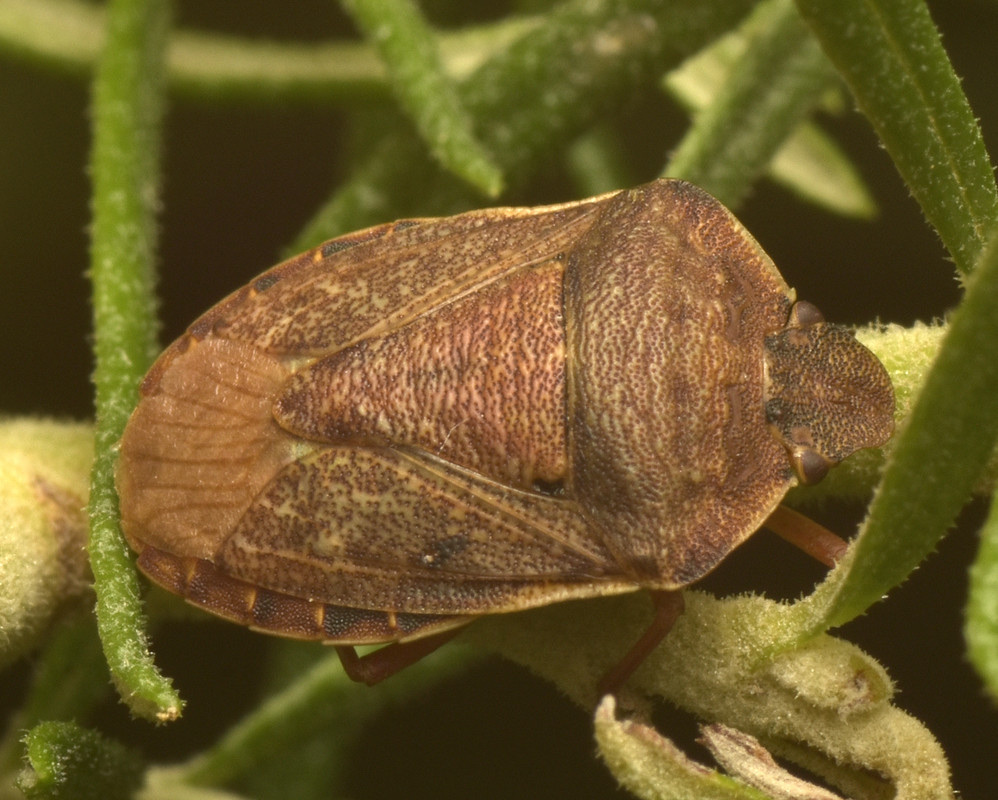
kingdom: Animalia
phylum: Arthropoda
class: Insecta
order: Hemiptera
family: Pentatomidae
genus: Tholosanus
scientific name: Tholosanus
